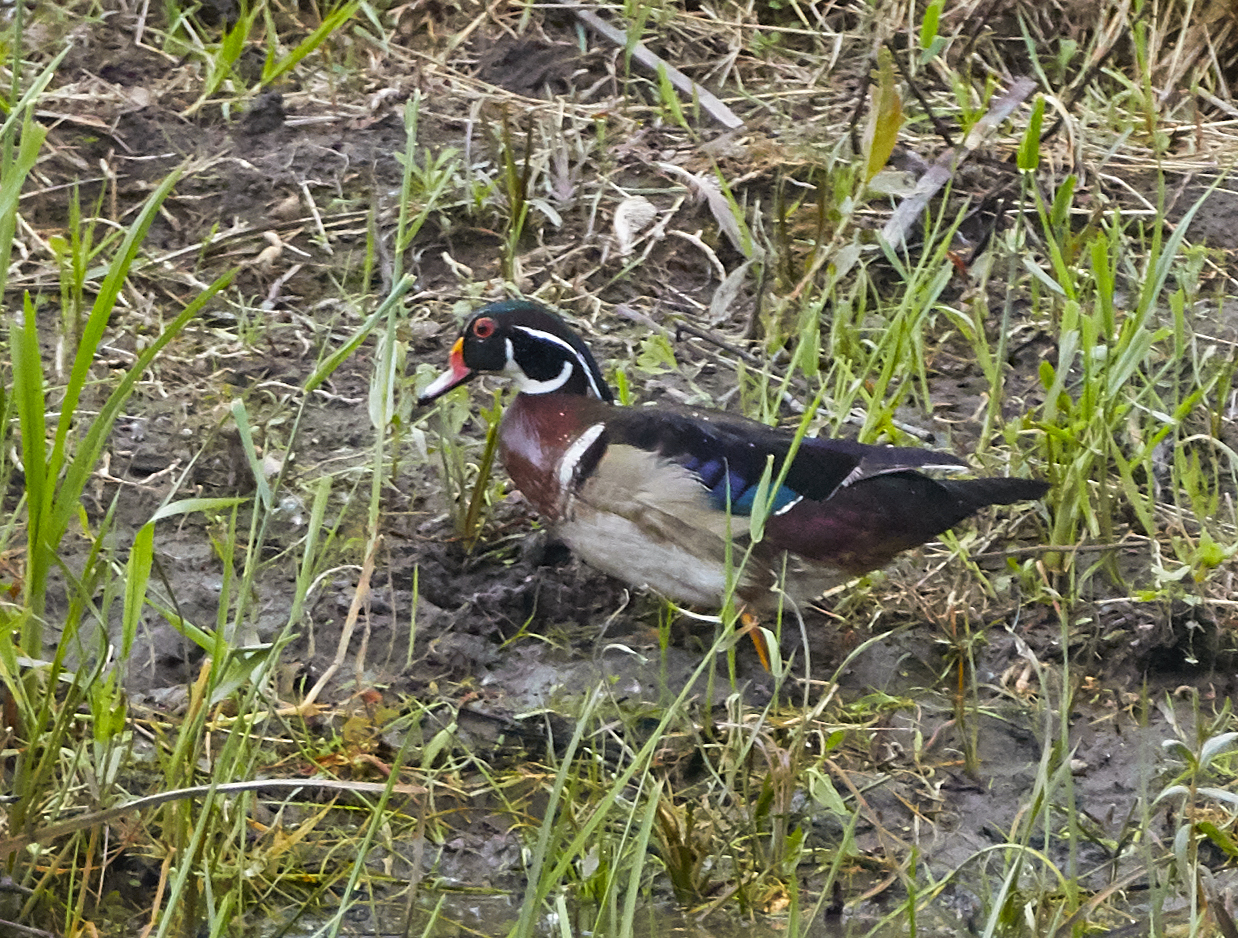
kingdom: Animalia
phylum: Chordata
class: Aves
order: Anseriformes
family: Anatidae
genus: Aix
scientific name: Aix sponsa
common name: Wood duck
